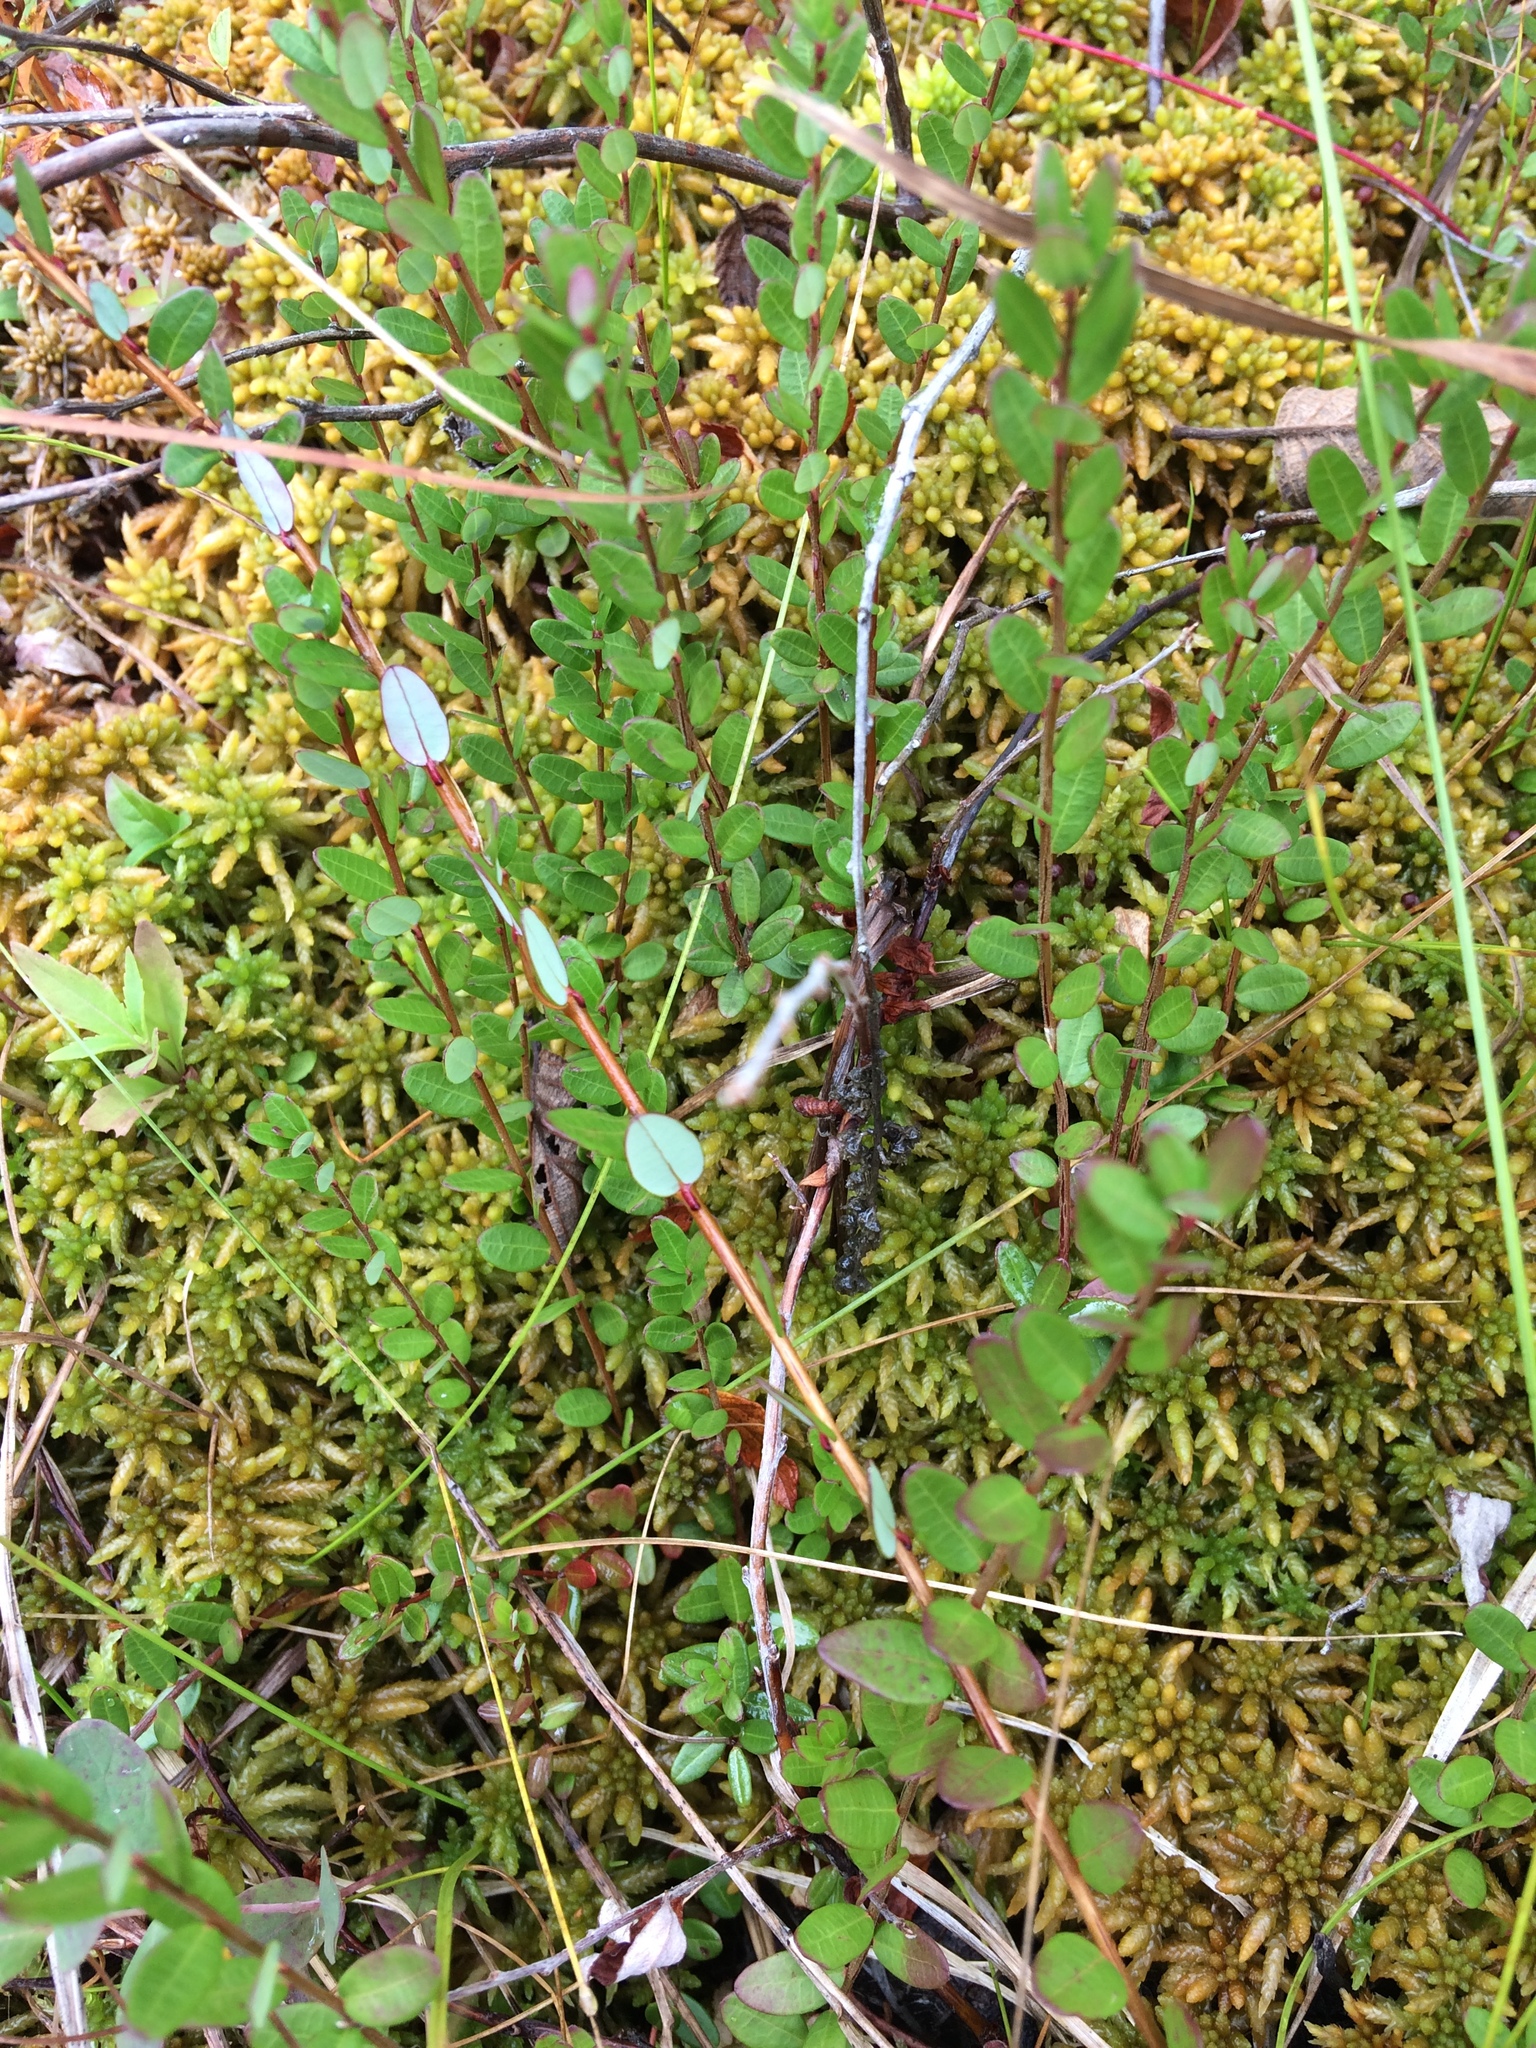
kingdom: Plantae
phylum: Tracheophyta
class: Magnoliopsida
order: Ericales
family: Ericaceae
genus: Vaccinium
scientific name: Vaccinium macrocarpon
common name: American cranberry
